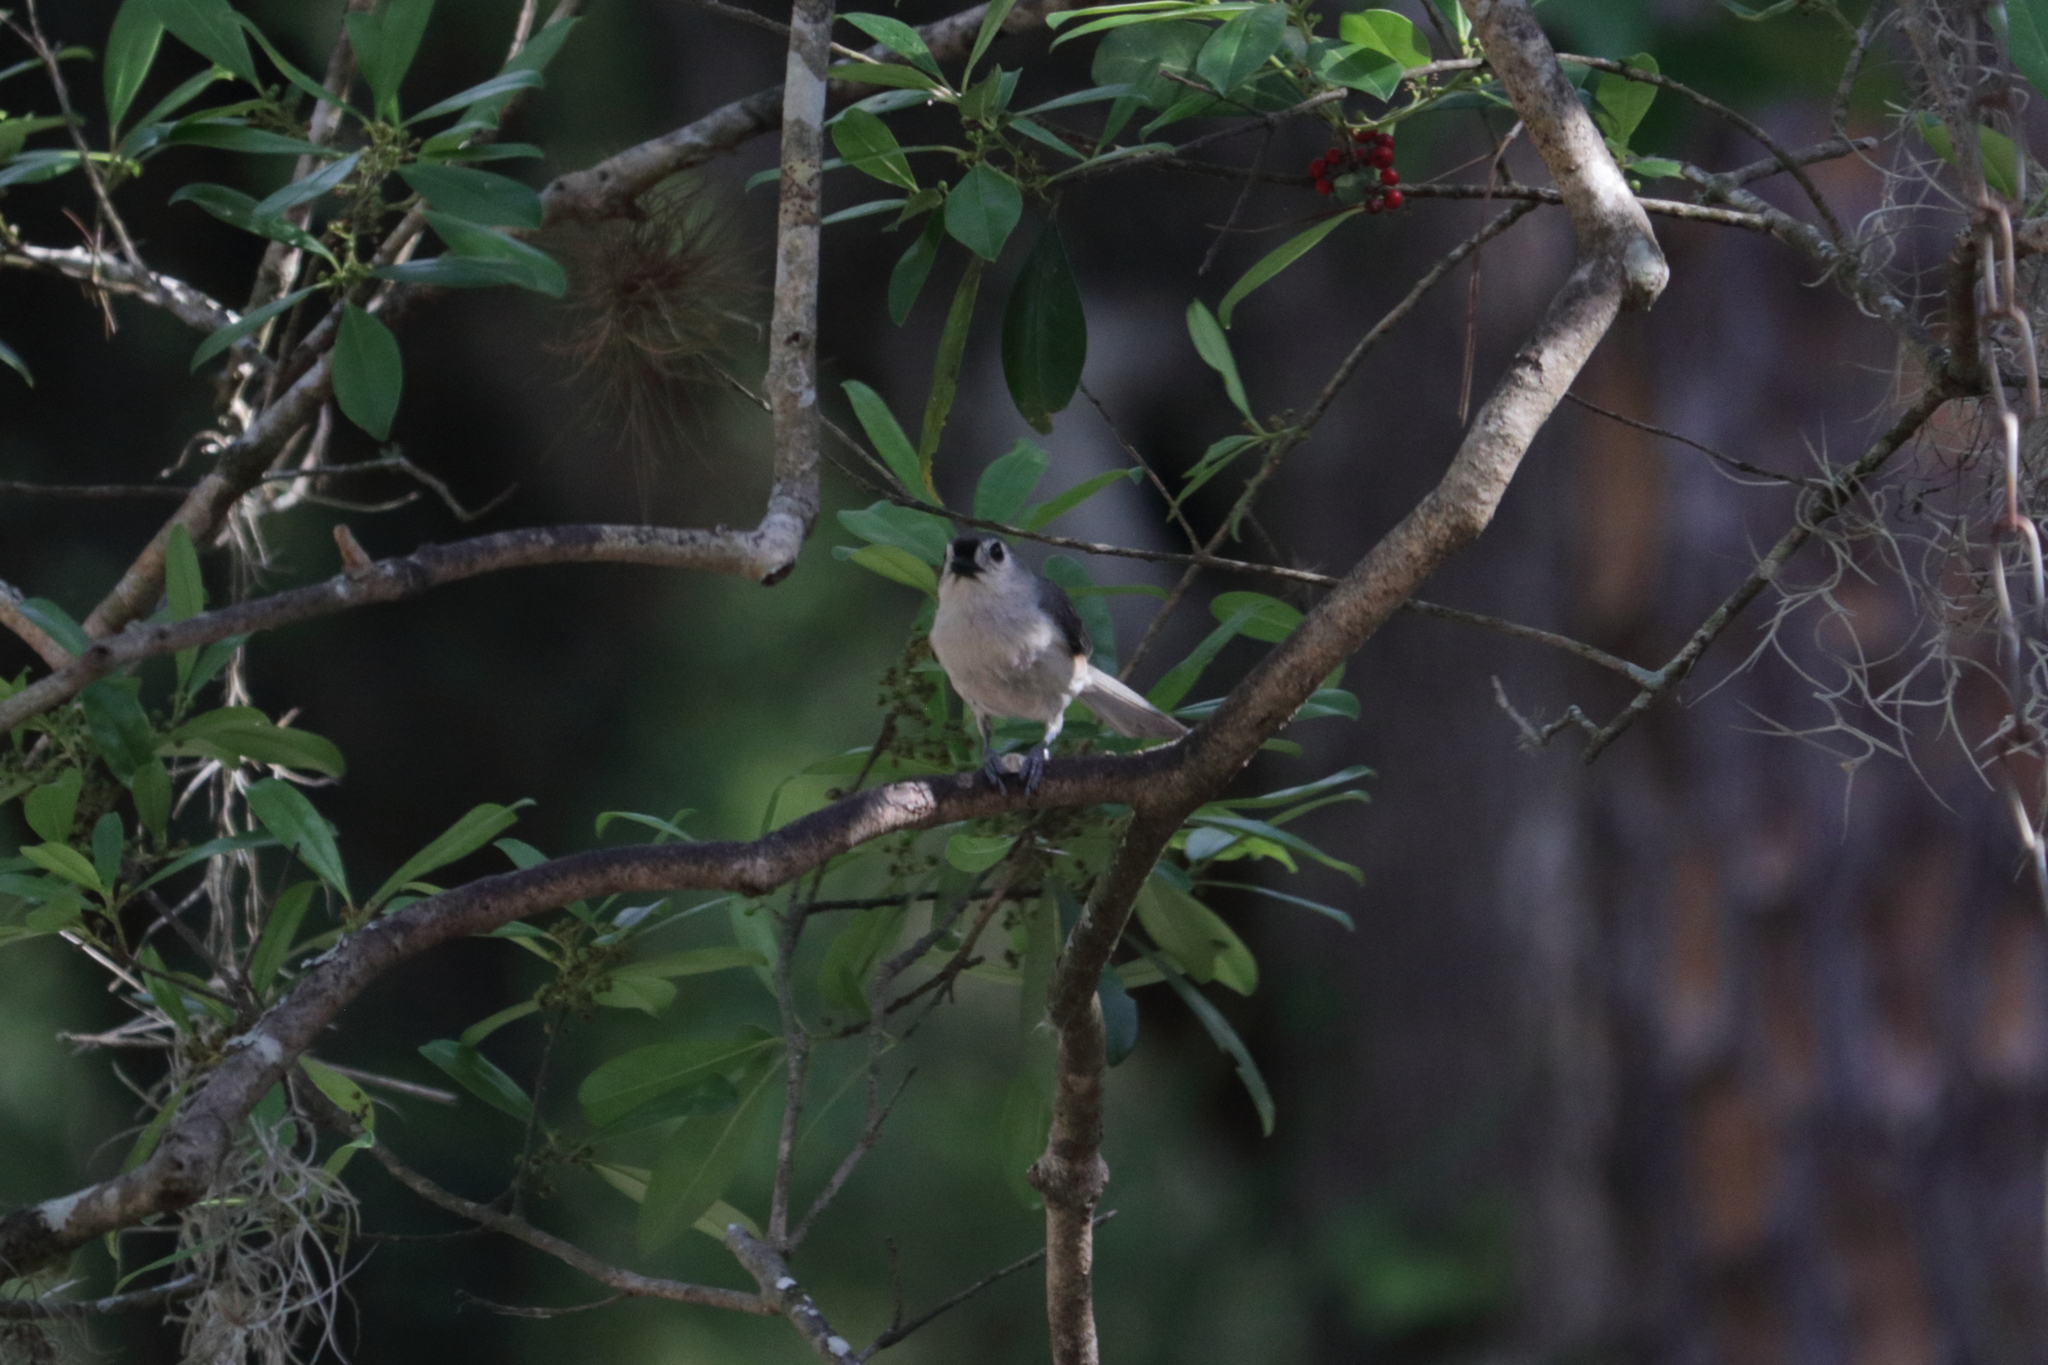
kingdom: Animalia
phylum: Chordata
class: Aves
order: Passeriformes
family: Paridae
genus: Baeolophus
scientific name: Baeolophus bicolor
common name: Tufted titmouse
